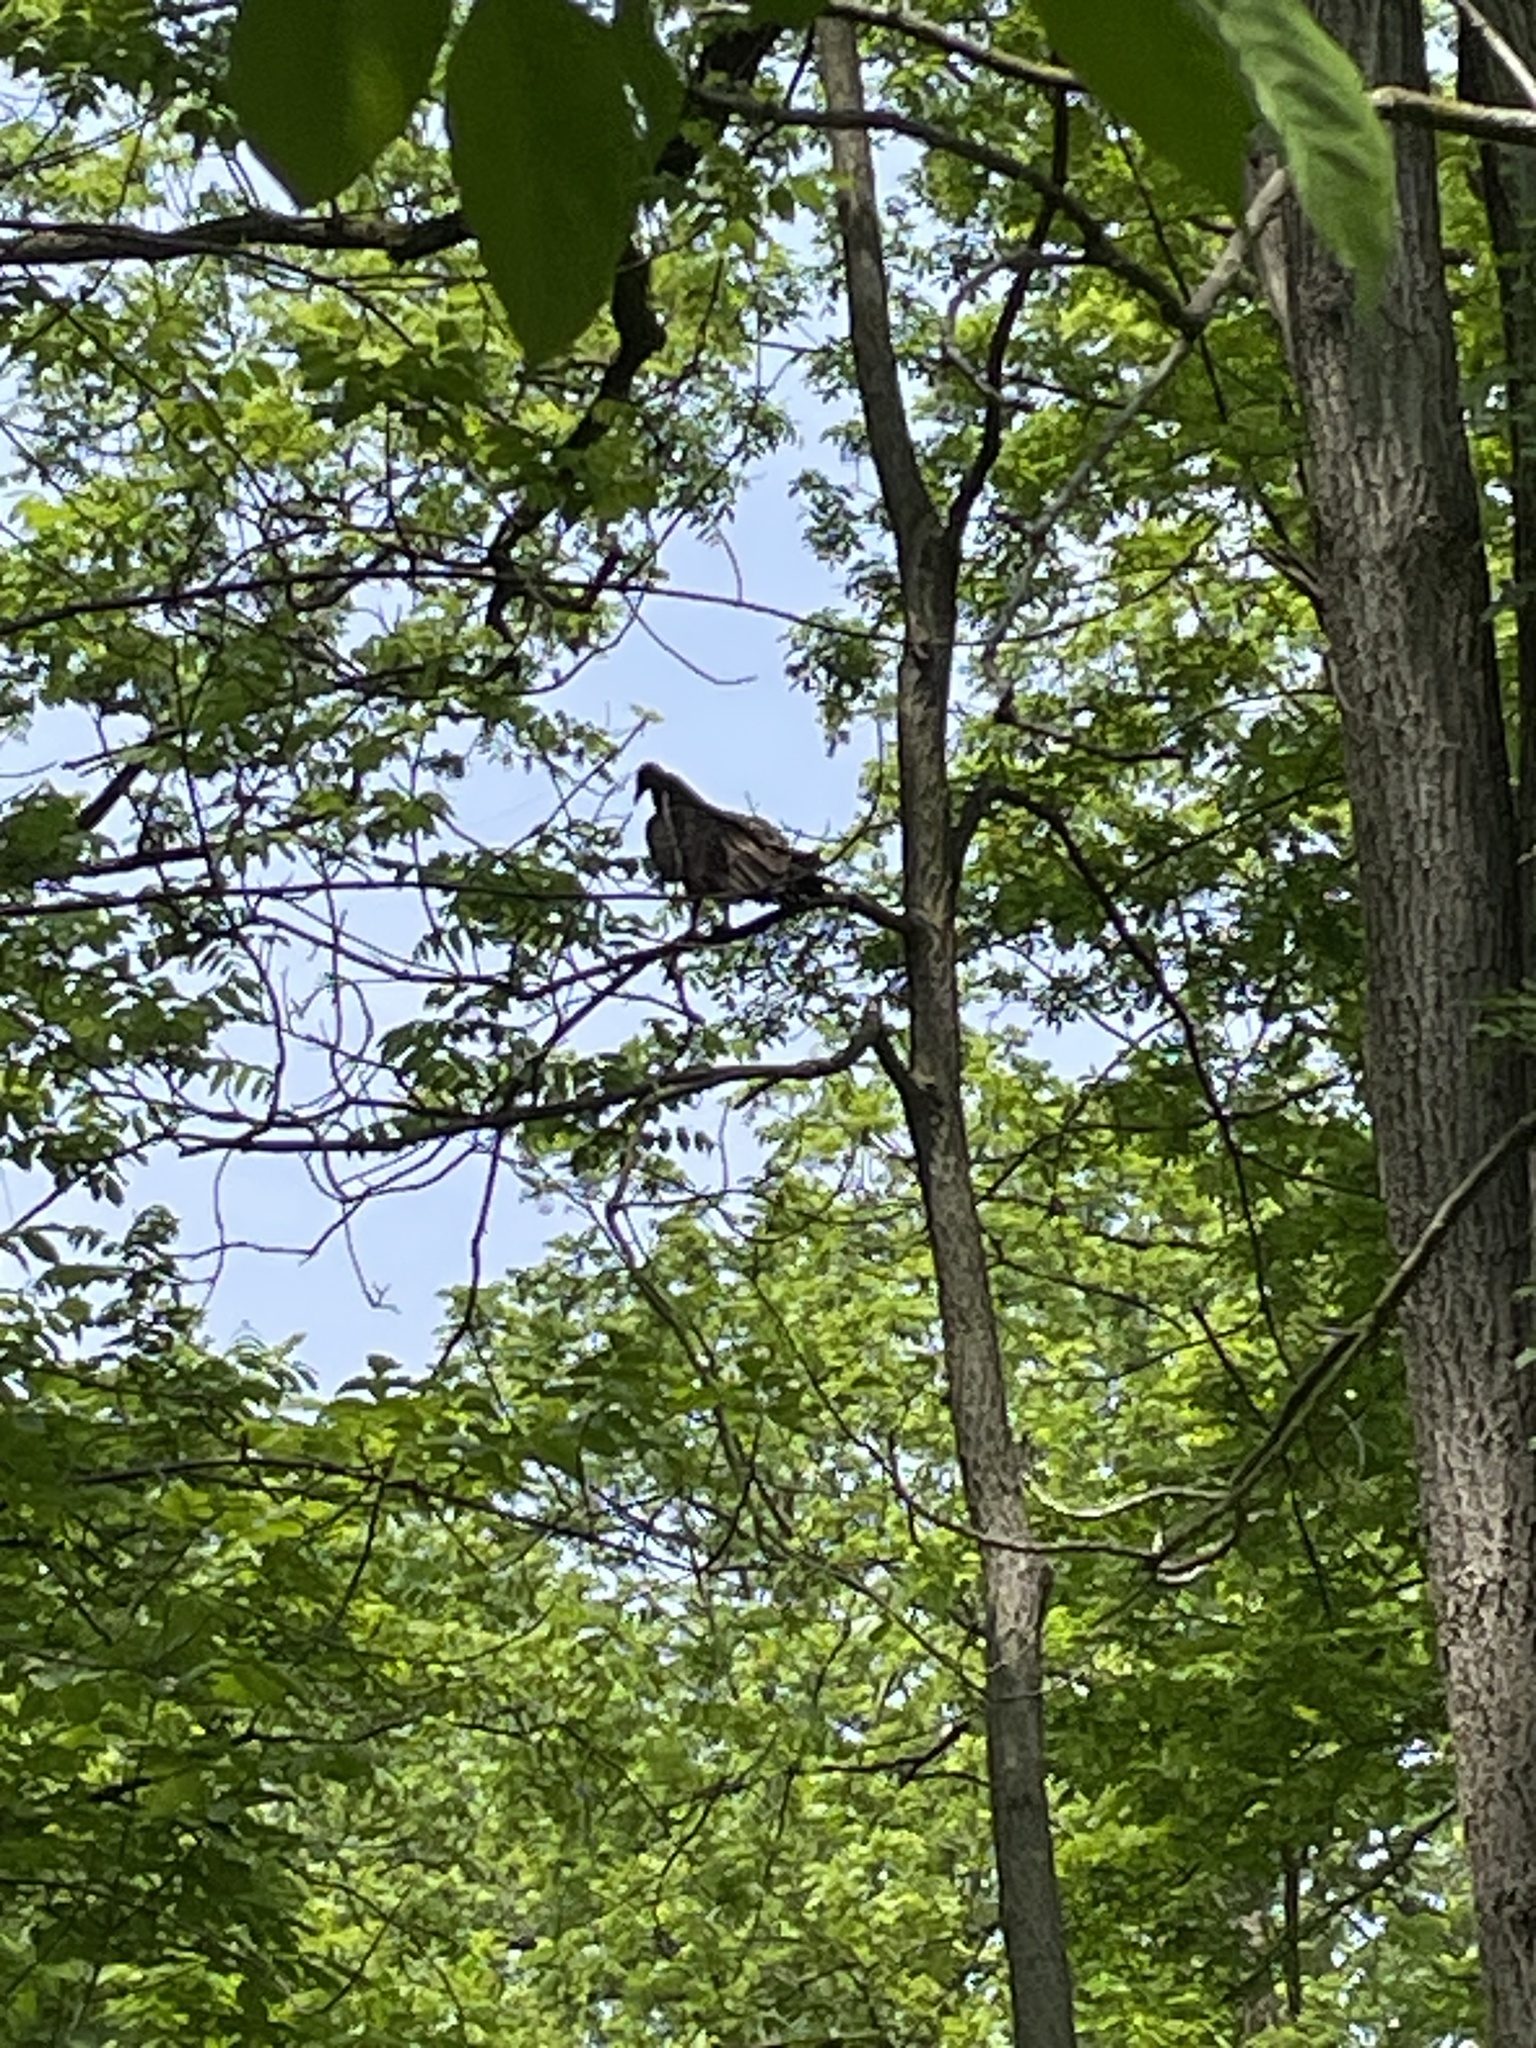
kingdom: Animalia
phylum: Chordata
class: Aves
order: Accipitriformes
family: Cathartidae
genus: Cathartes
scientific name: Cathartes aura
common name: Turkey vulture
